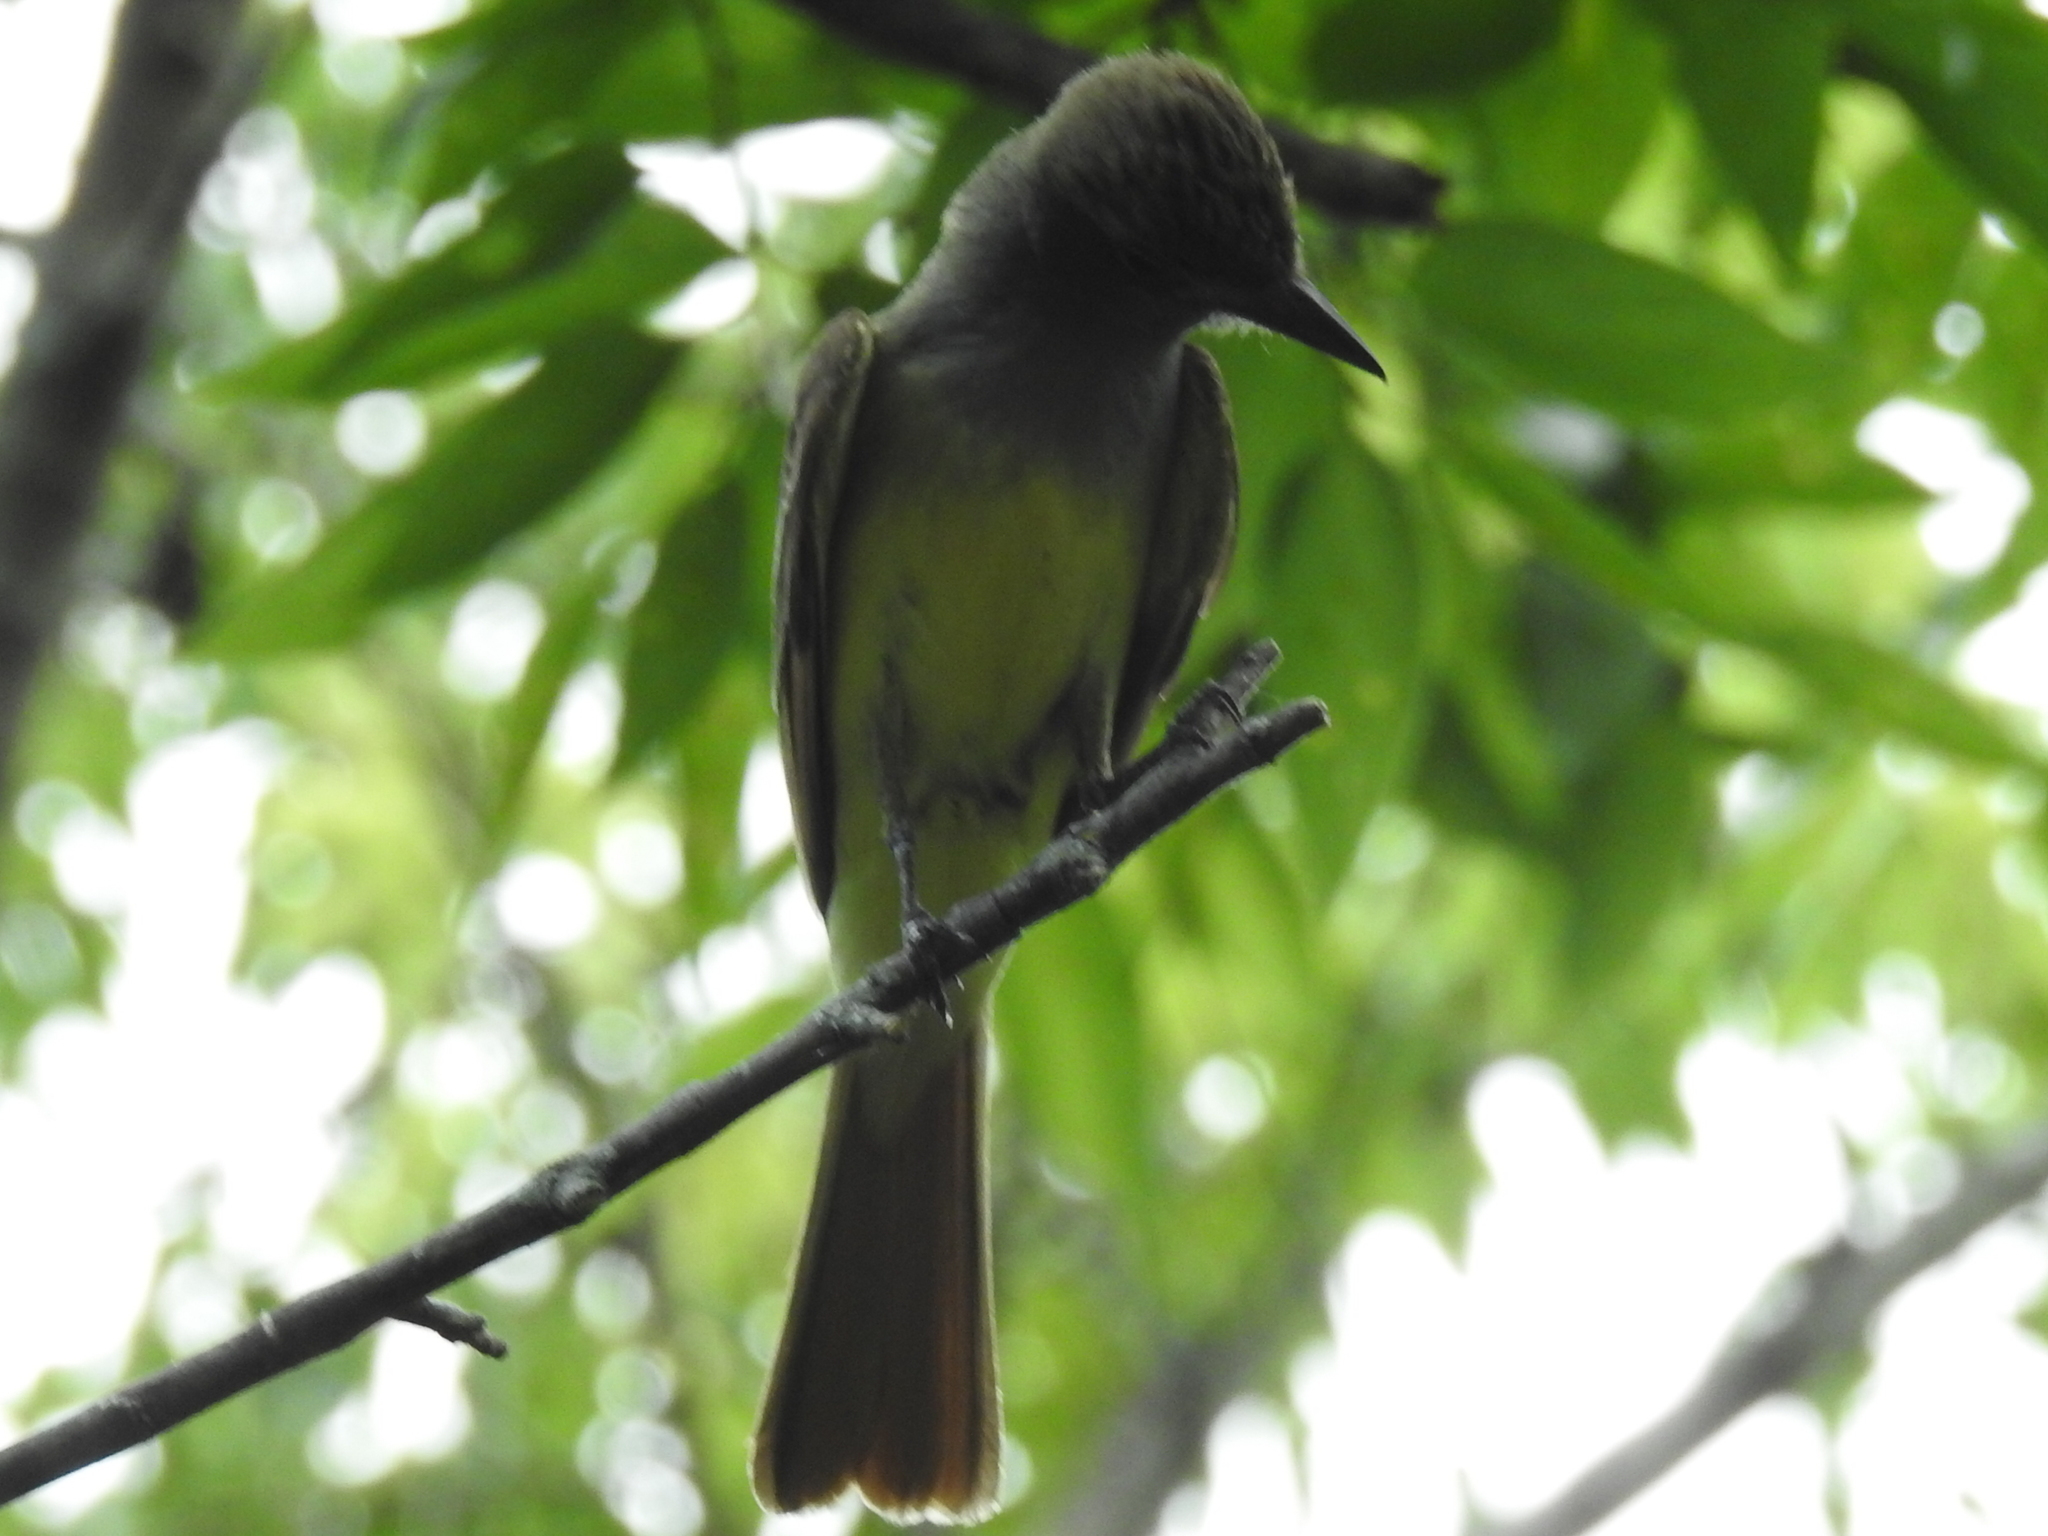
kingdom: Animalia
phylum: Chordata
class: Aves
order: Passeriformes
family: Tyrannidae
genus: Myiarchus
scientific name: Myiarchus crinitus
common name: Great crested flycatcher
